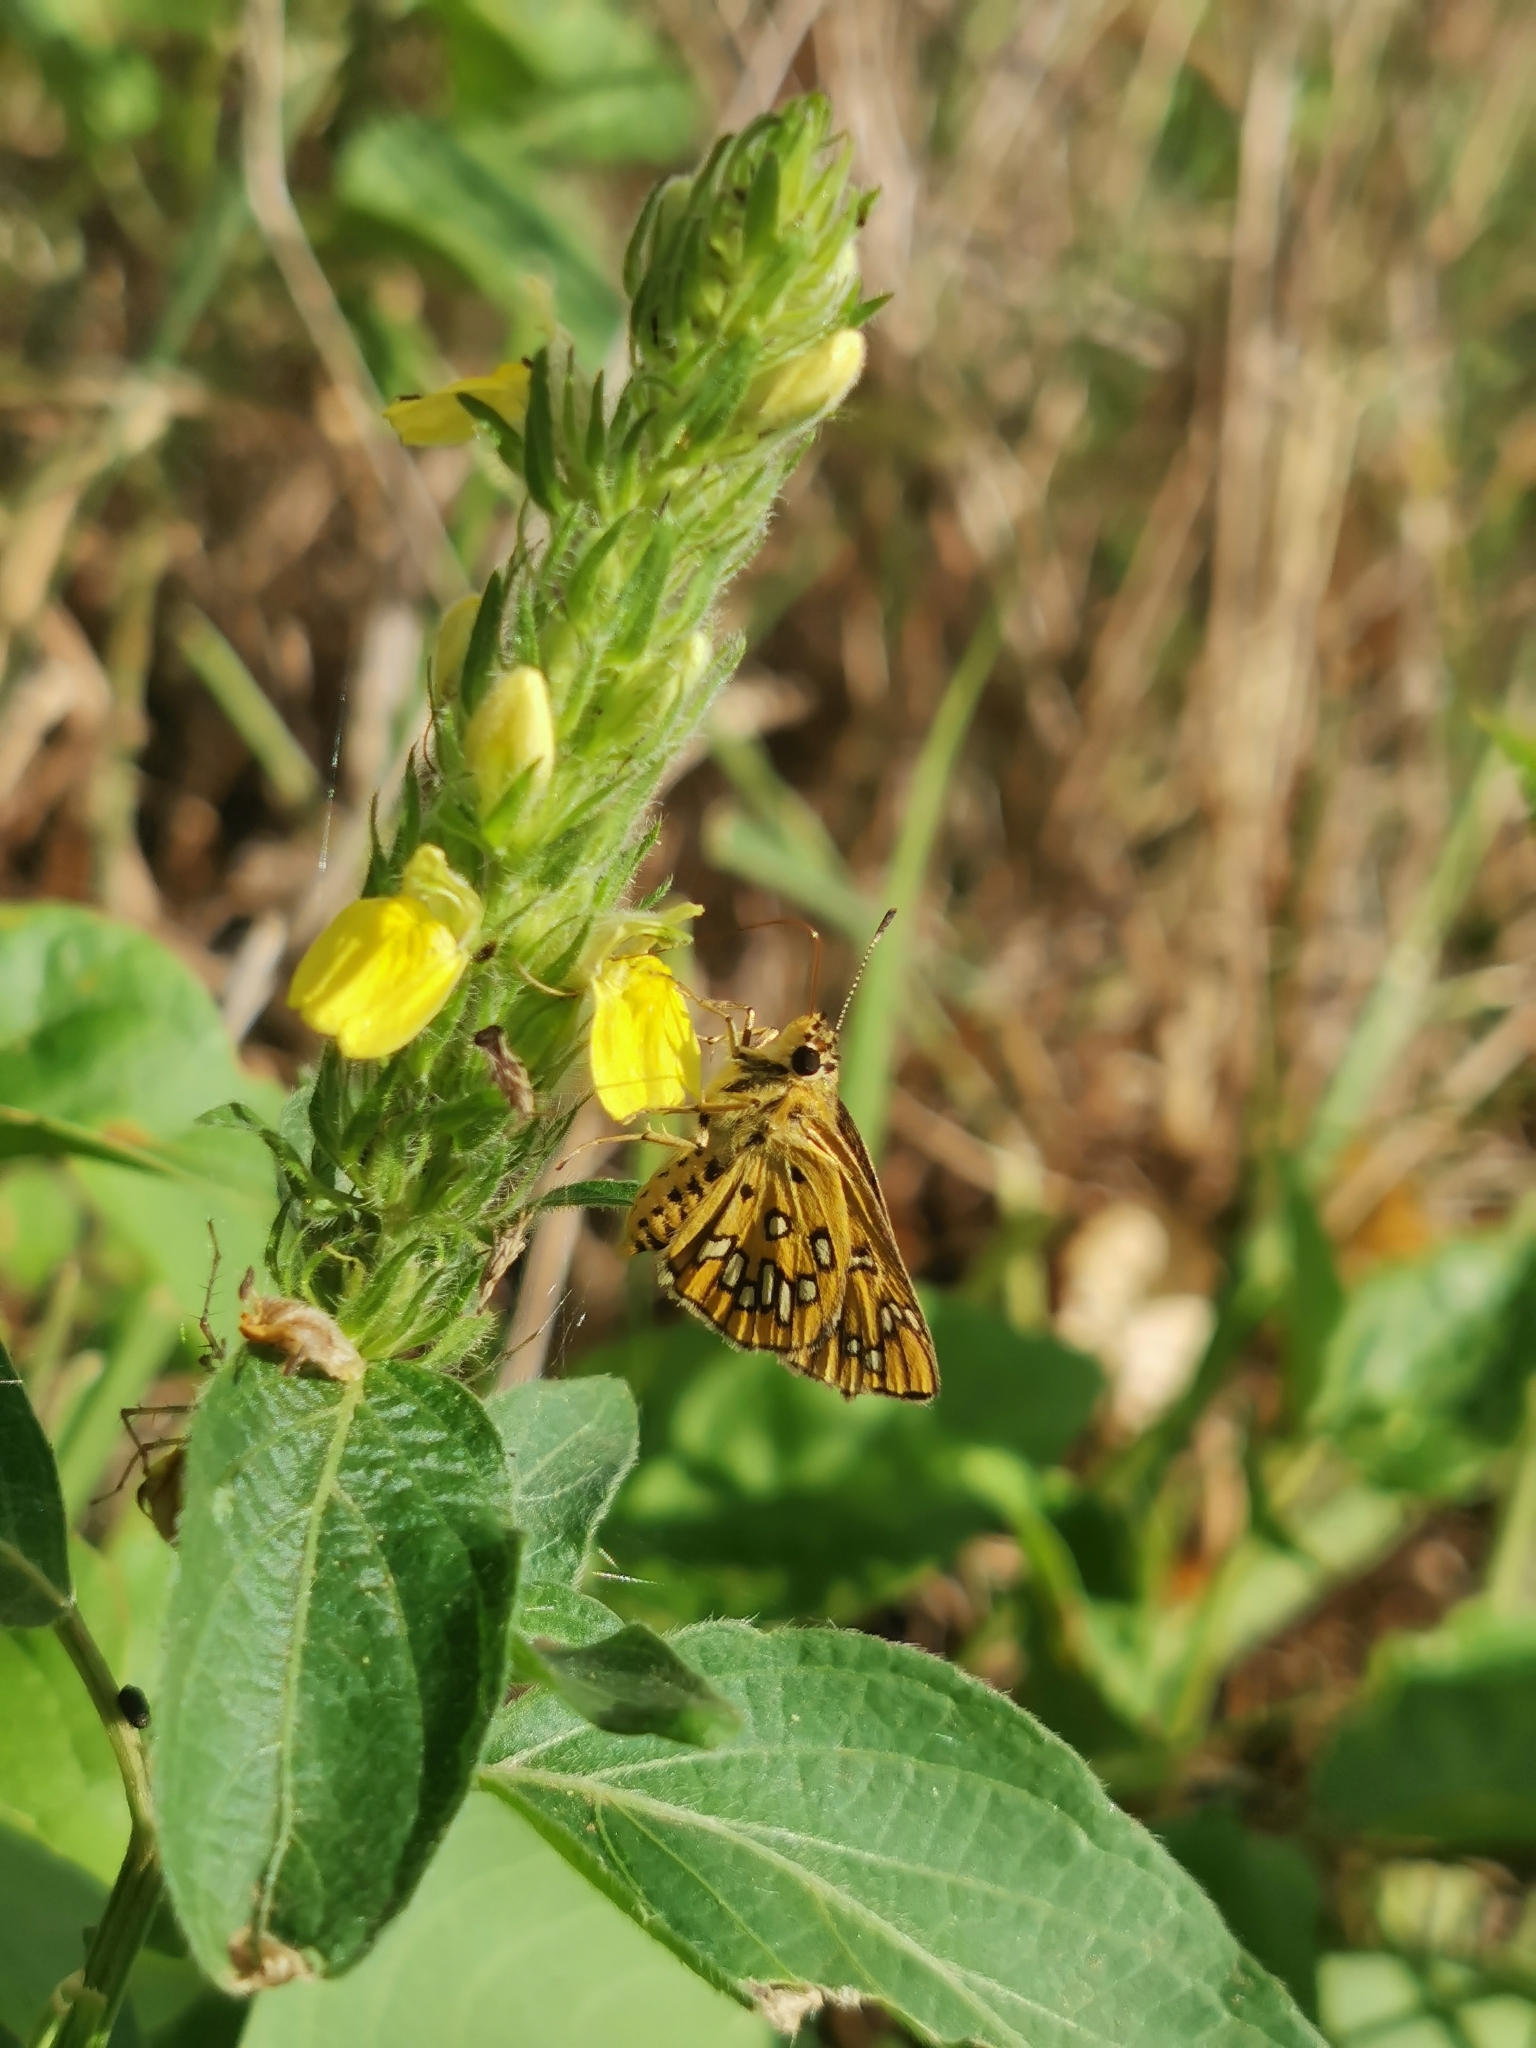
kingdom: Plantae
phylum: Tracheophyta
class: Magnoliopsida
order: Lamiales
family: Acanthaceae
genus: Justicia
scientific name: Justicia flava
